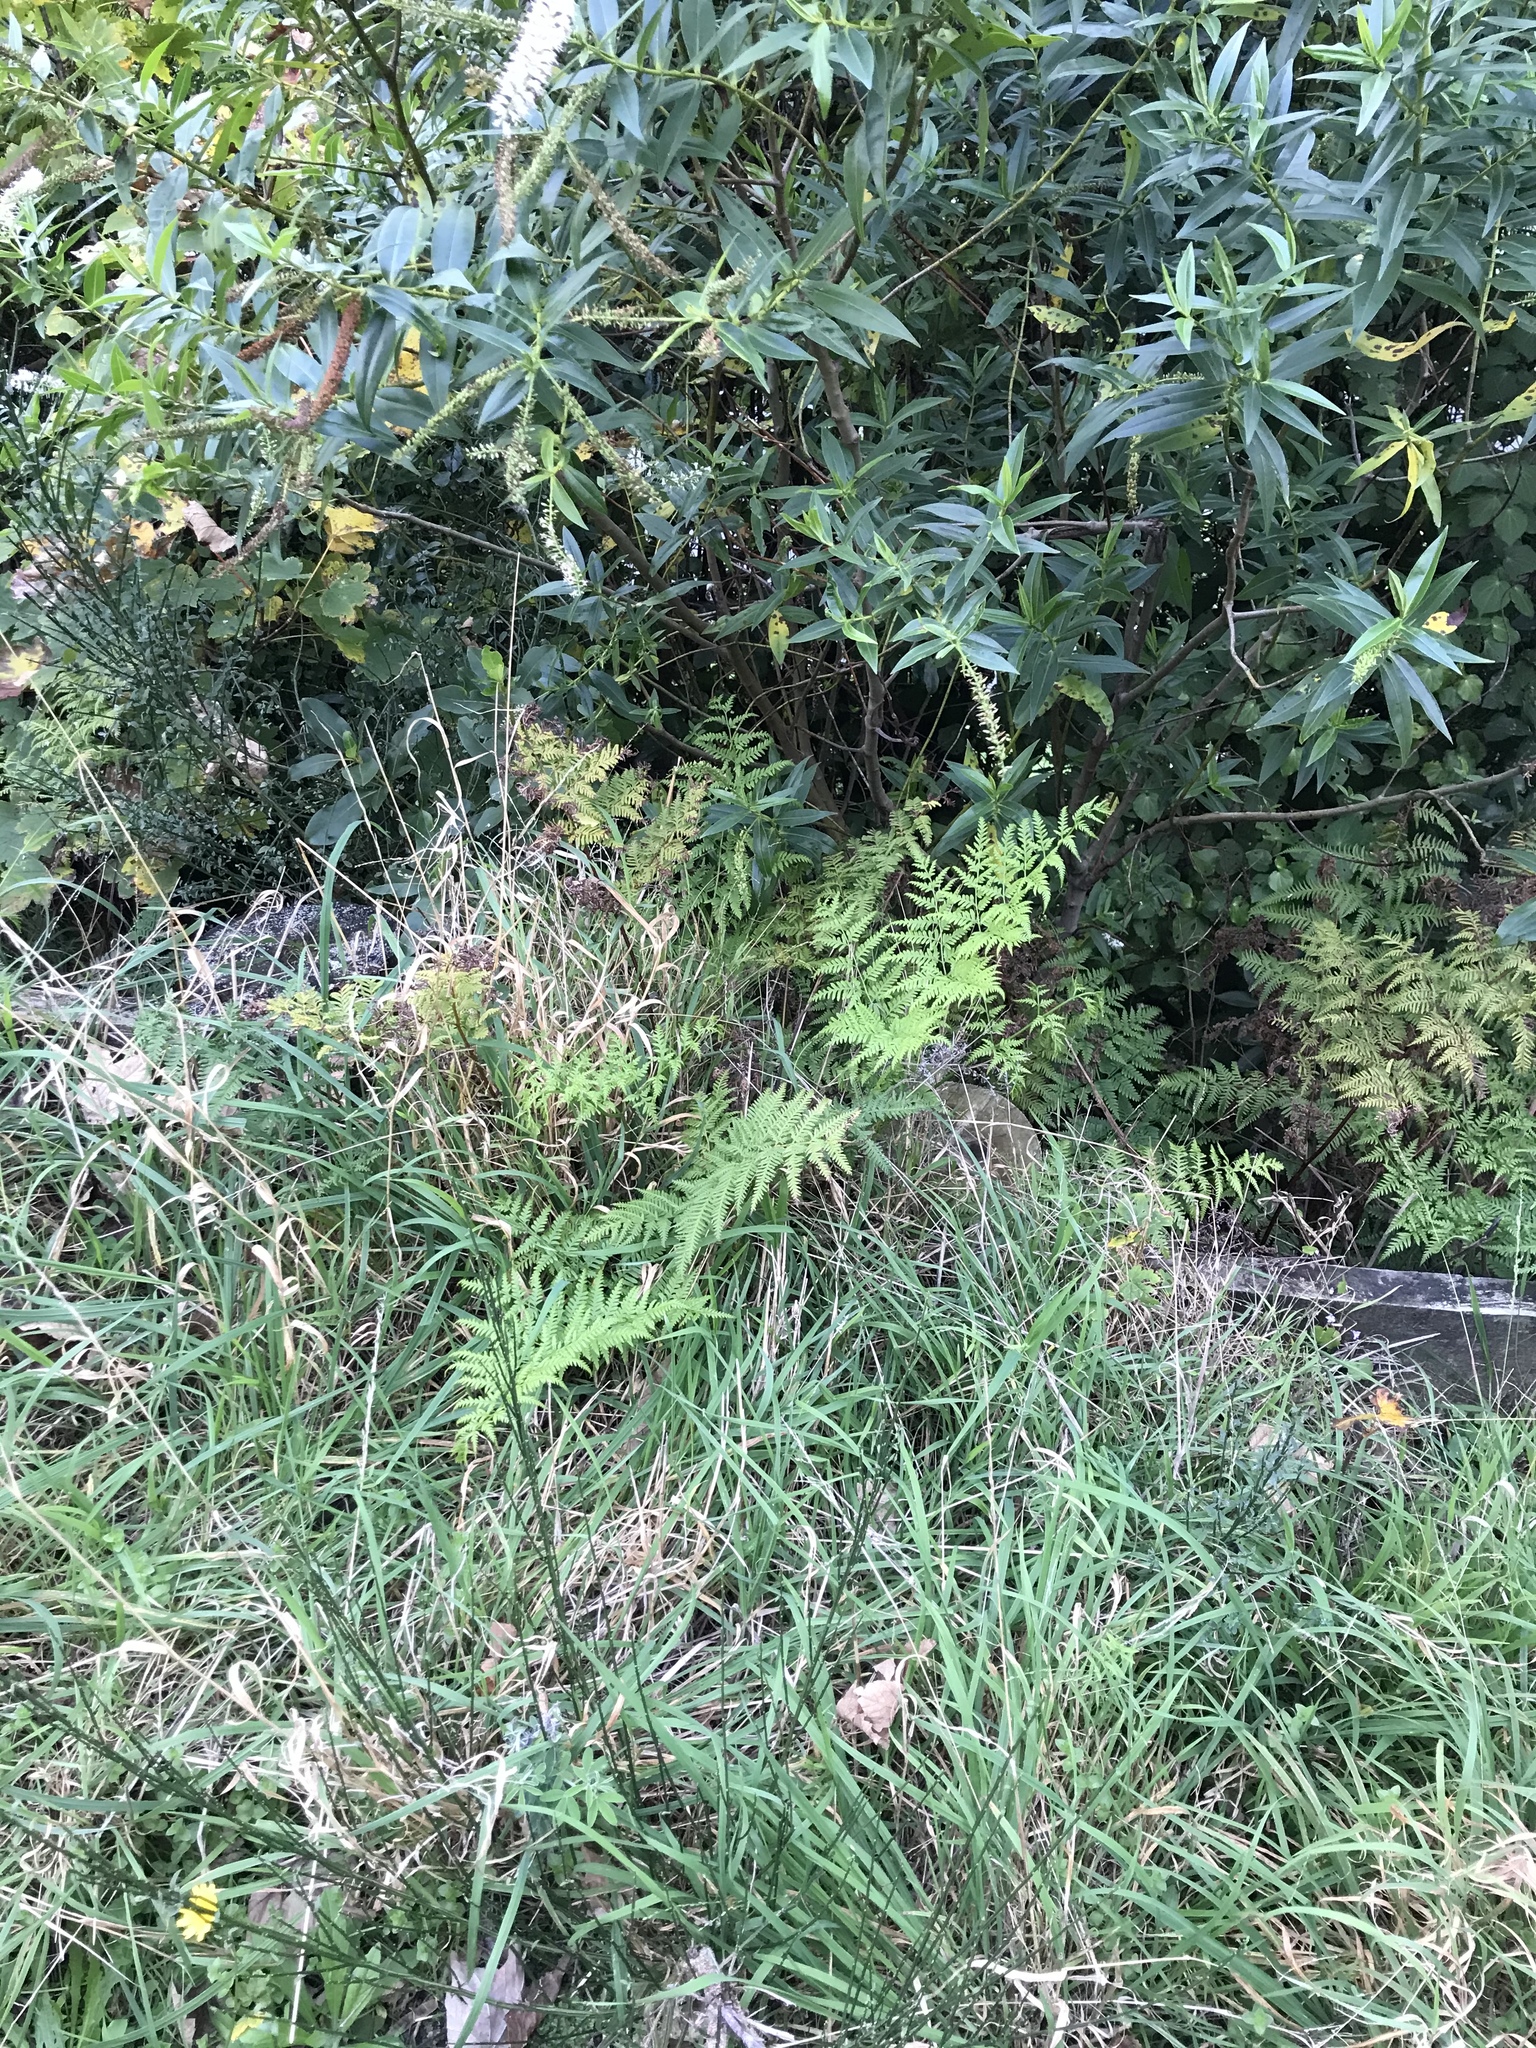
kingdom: Plantae
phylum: Tracheophyta
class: Polypodiopsida
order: Polypodiales
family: Pteridaceae
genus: Pteris
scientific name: Pteris tremula
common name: Australian brake
